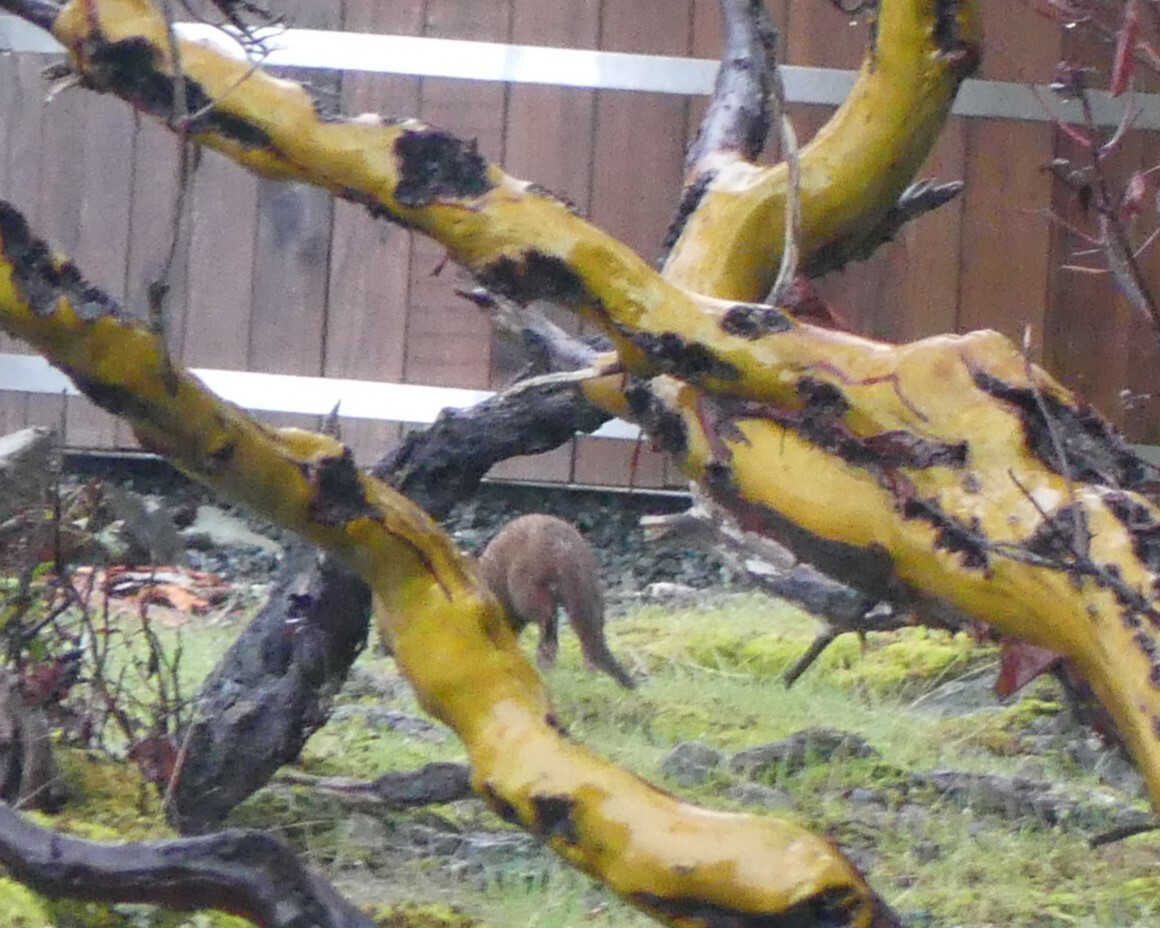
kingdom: Animalia
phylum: Chordata
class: Mammalia
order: Carnivora
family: Mustelidae
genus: Mustela
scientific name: Mustela
